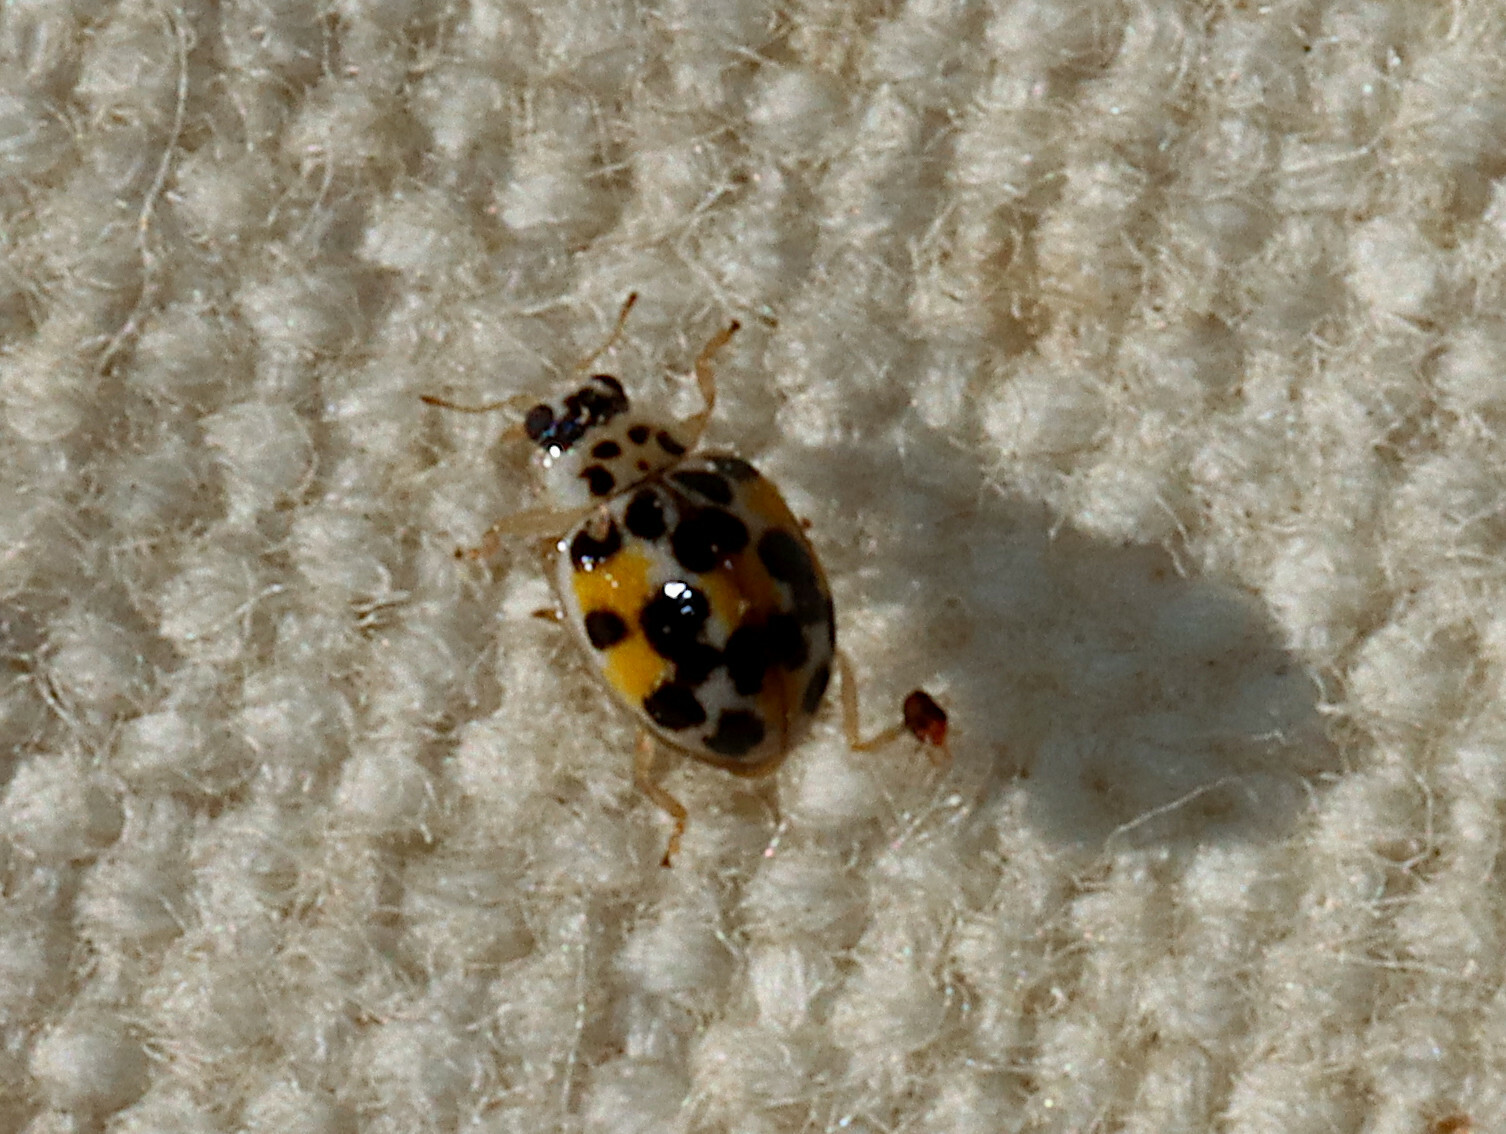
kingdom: Animalia
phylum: Arthropoda
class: Insecta
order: Coleoptera
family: Coccinellidae
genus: Psyllobora
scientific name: Psyllobora vigintimaculata
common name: Ladybird beetle
